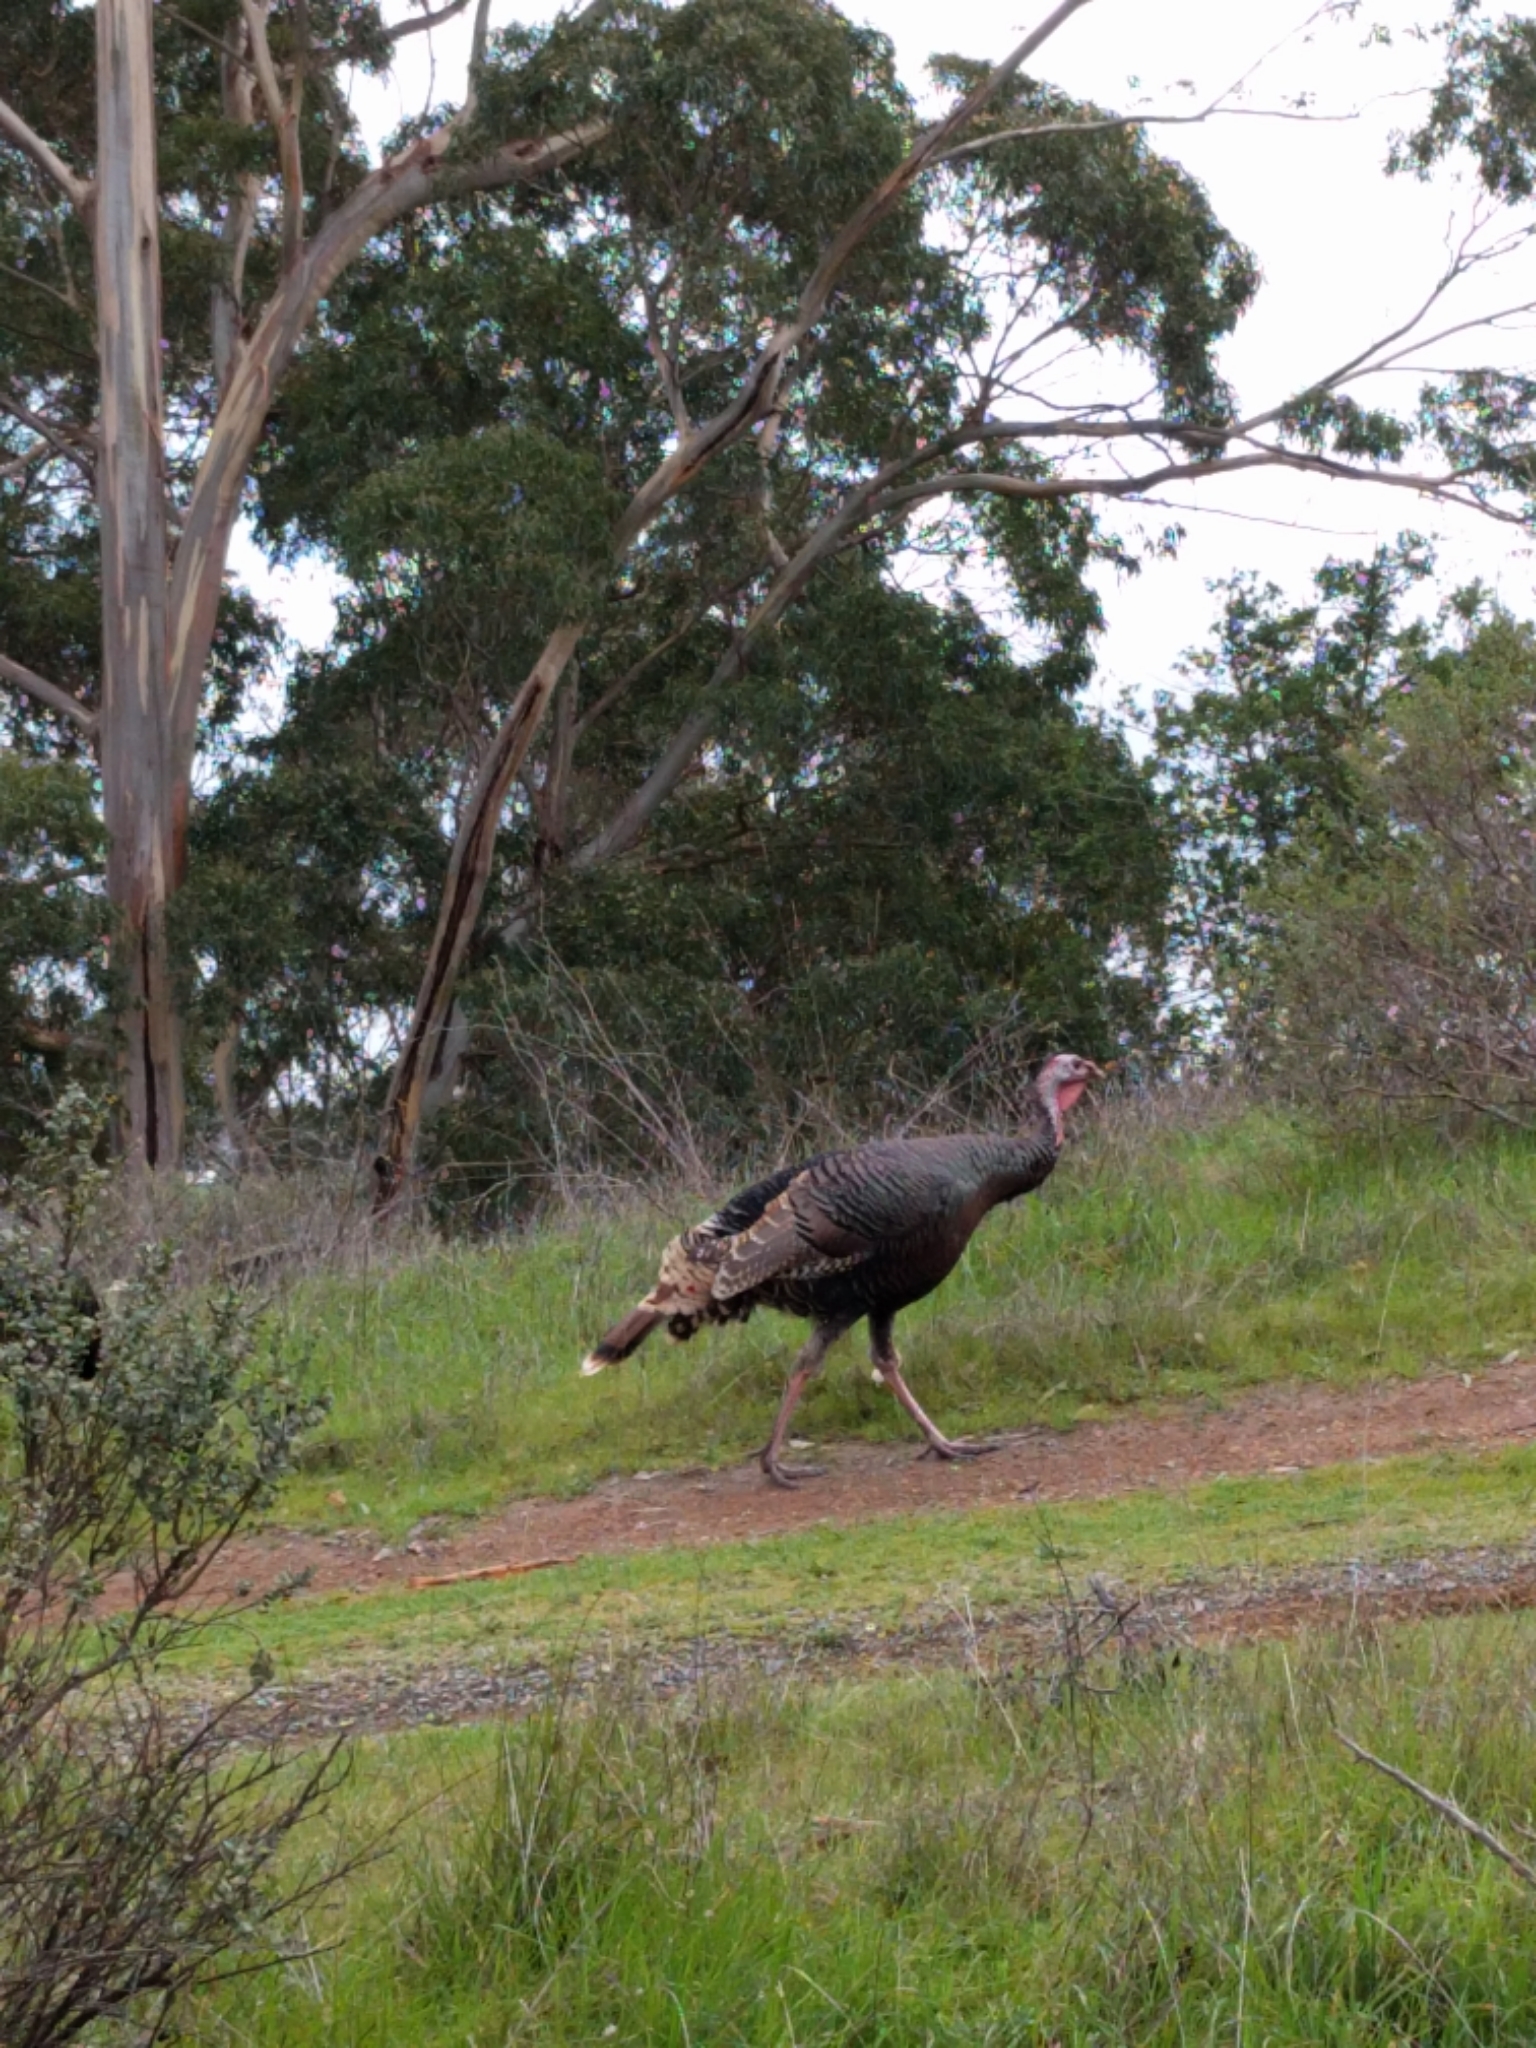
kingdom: Animalia
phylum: Chordata
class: Aves
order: Galliformes
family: Phasianidae
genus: Meleagris
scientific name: Meleagris gallopavo
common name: Wild turkey
